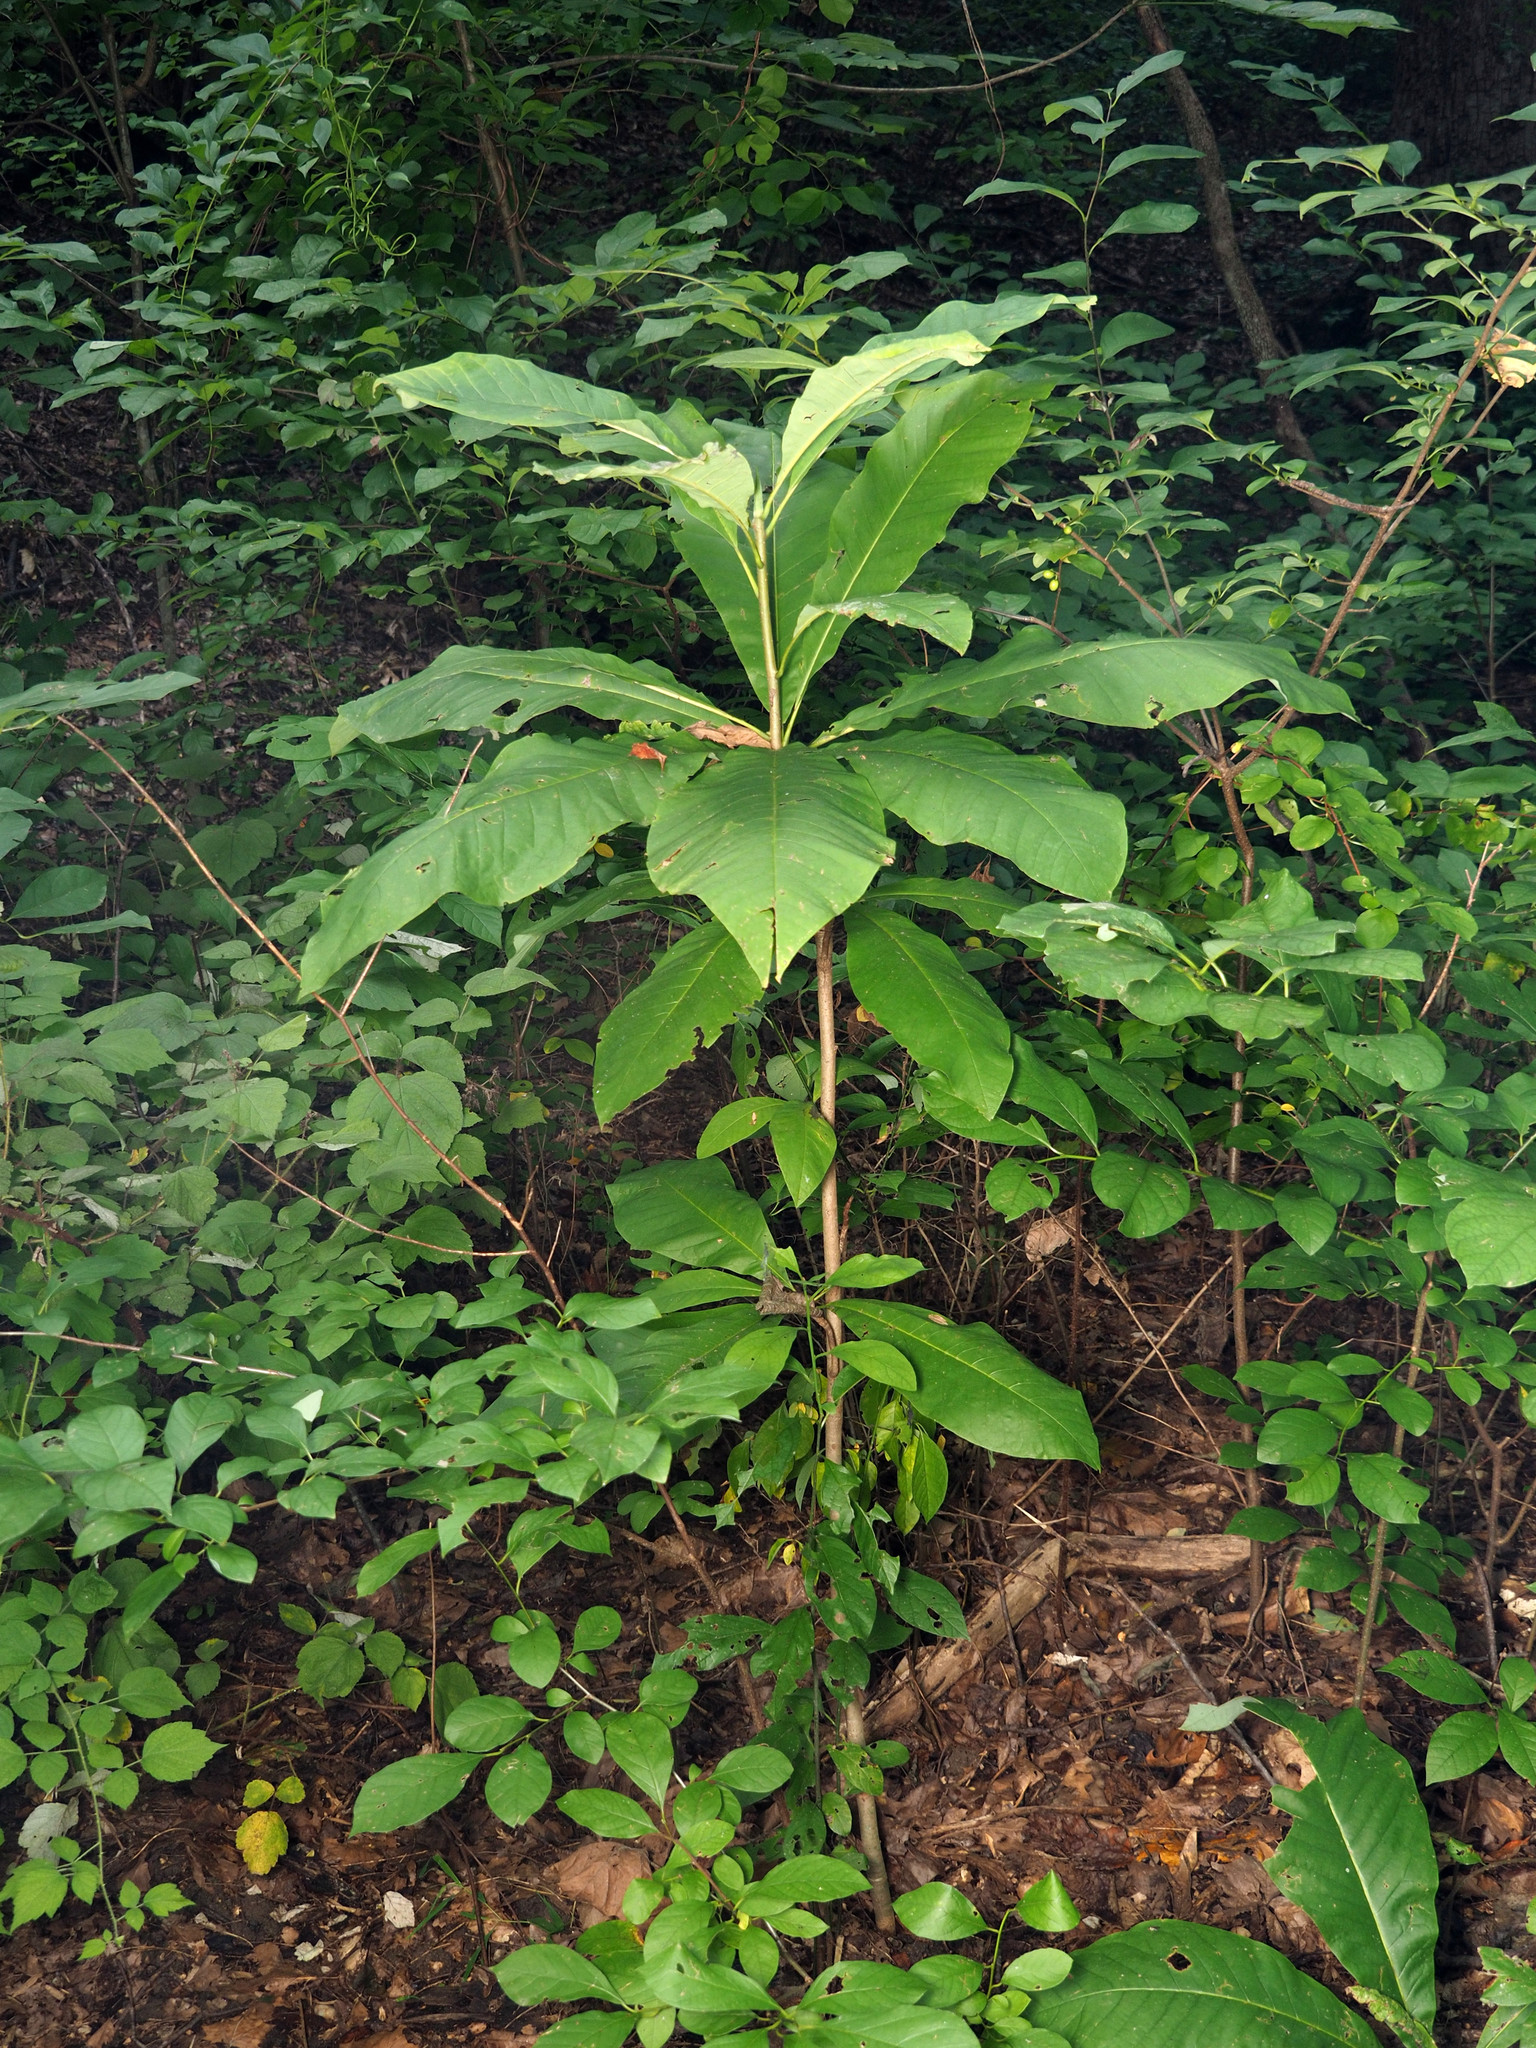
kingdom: Plantae
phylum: Tracheophyta
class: Magnoliopsida
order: Magnoliales
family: Magnoliaceae
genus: Magnolia
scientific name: Magnolia tripetala
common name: Umbrella magnolia
